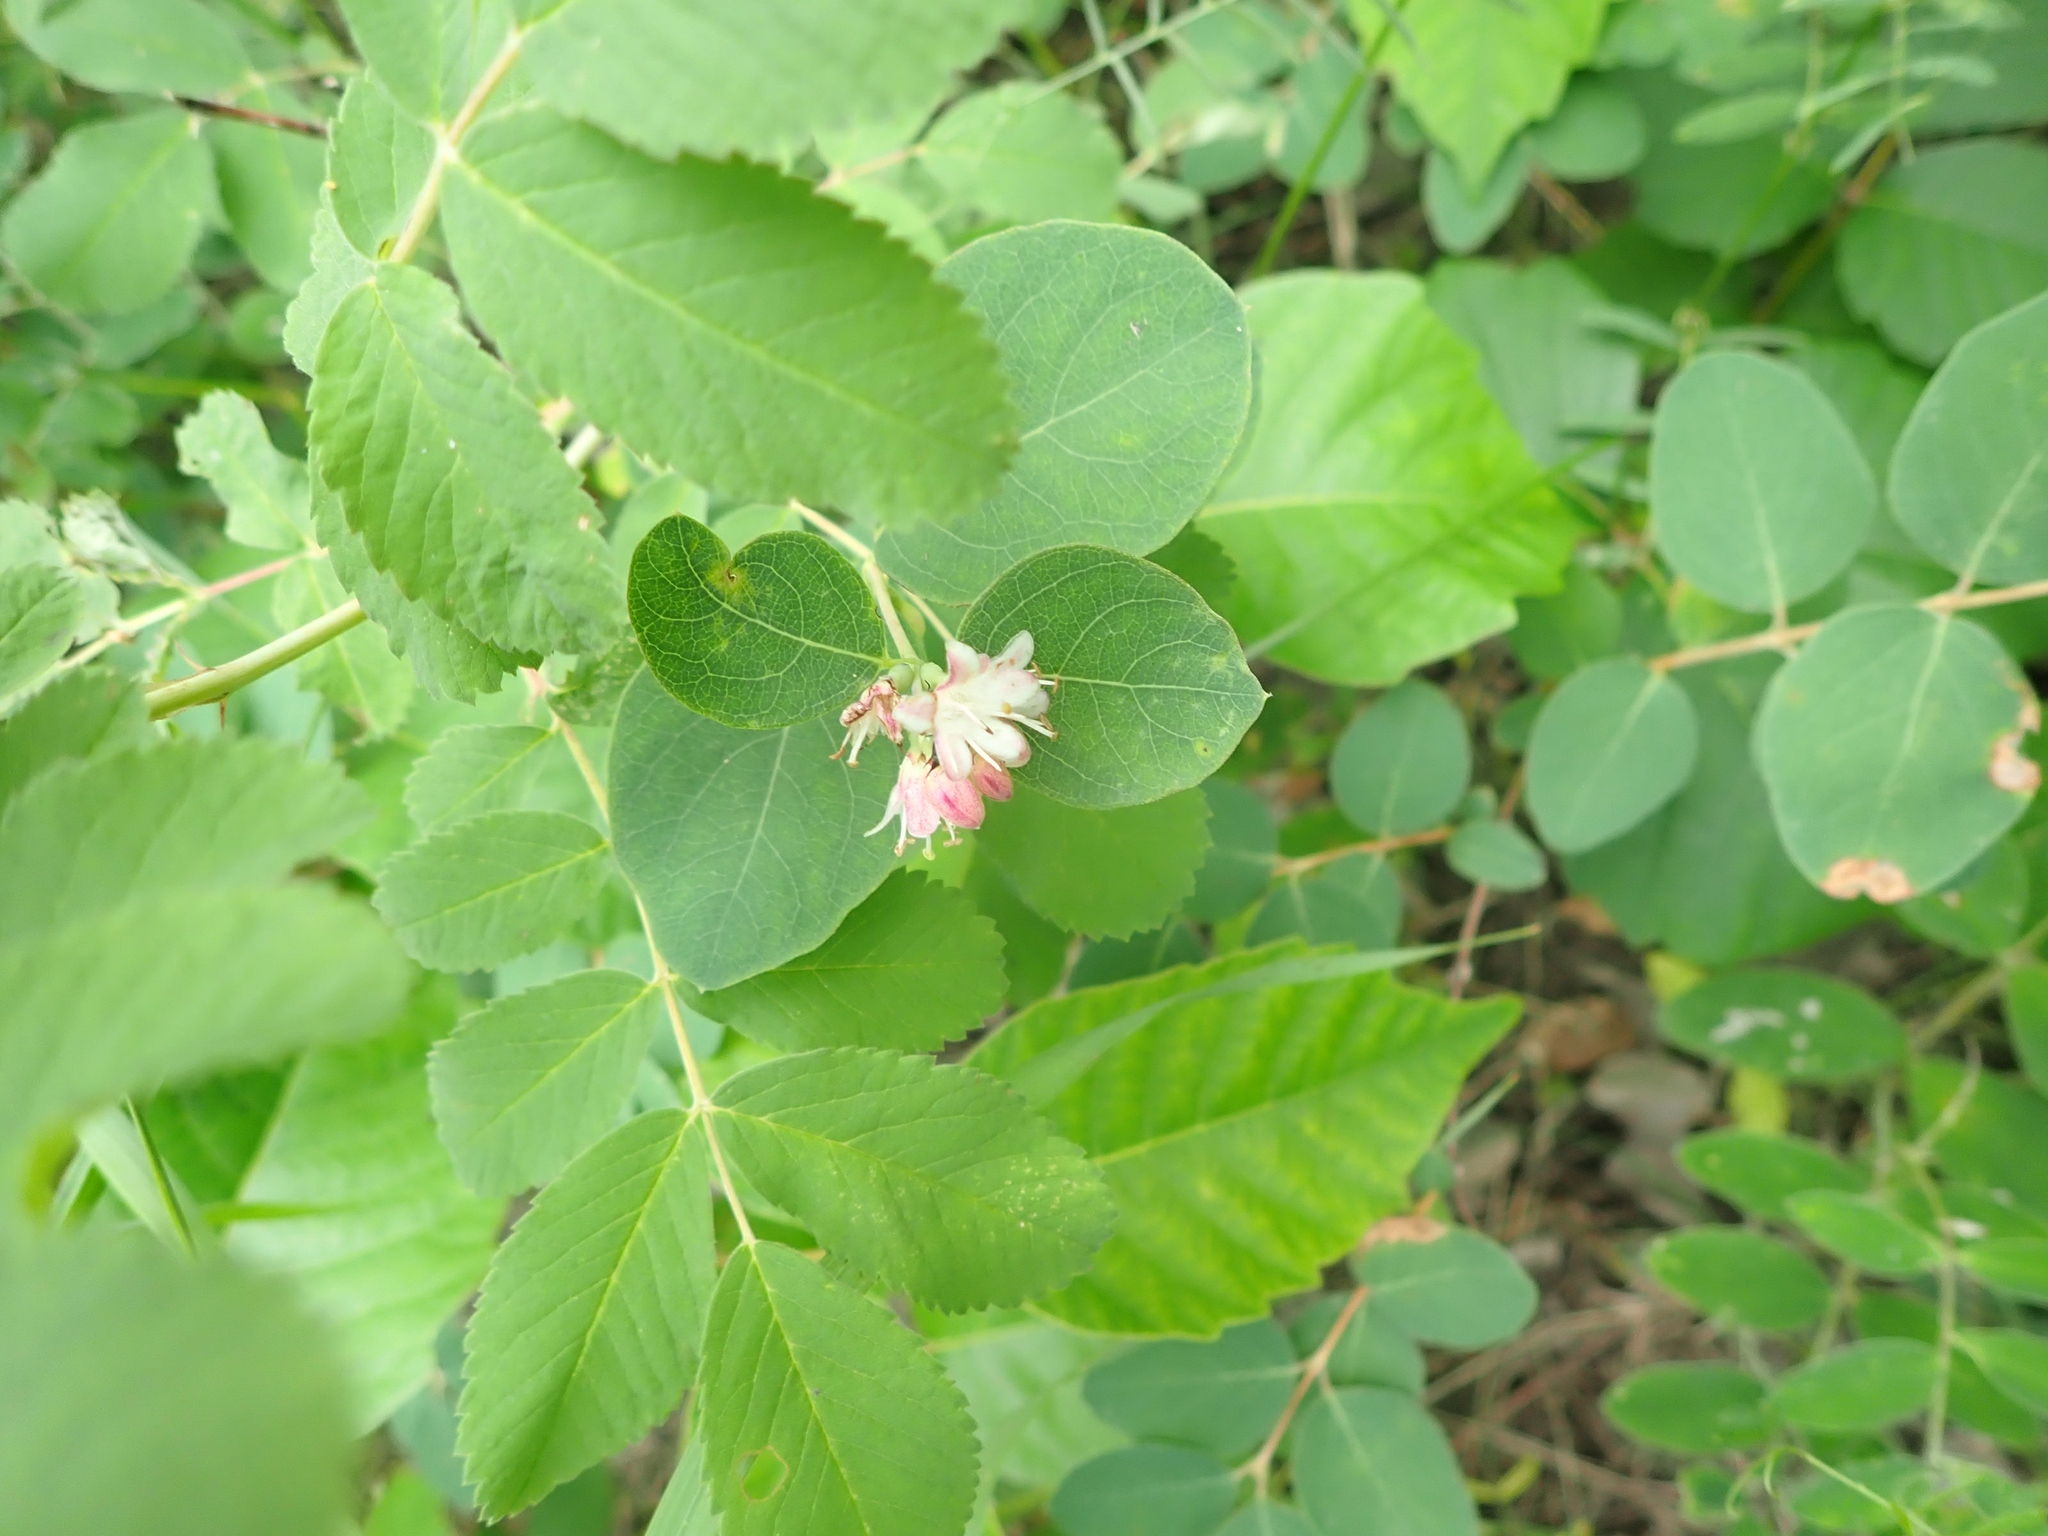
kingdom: Plantae
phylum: Tracheophyta
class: Magnoliopsida
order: Dipsacales
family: Caprifoliaceae
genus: Symphoricarpos
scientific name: Symphoricarpos occidentalis
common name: Wolfberry
